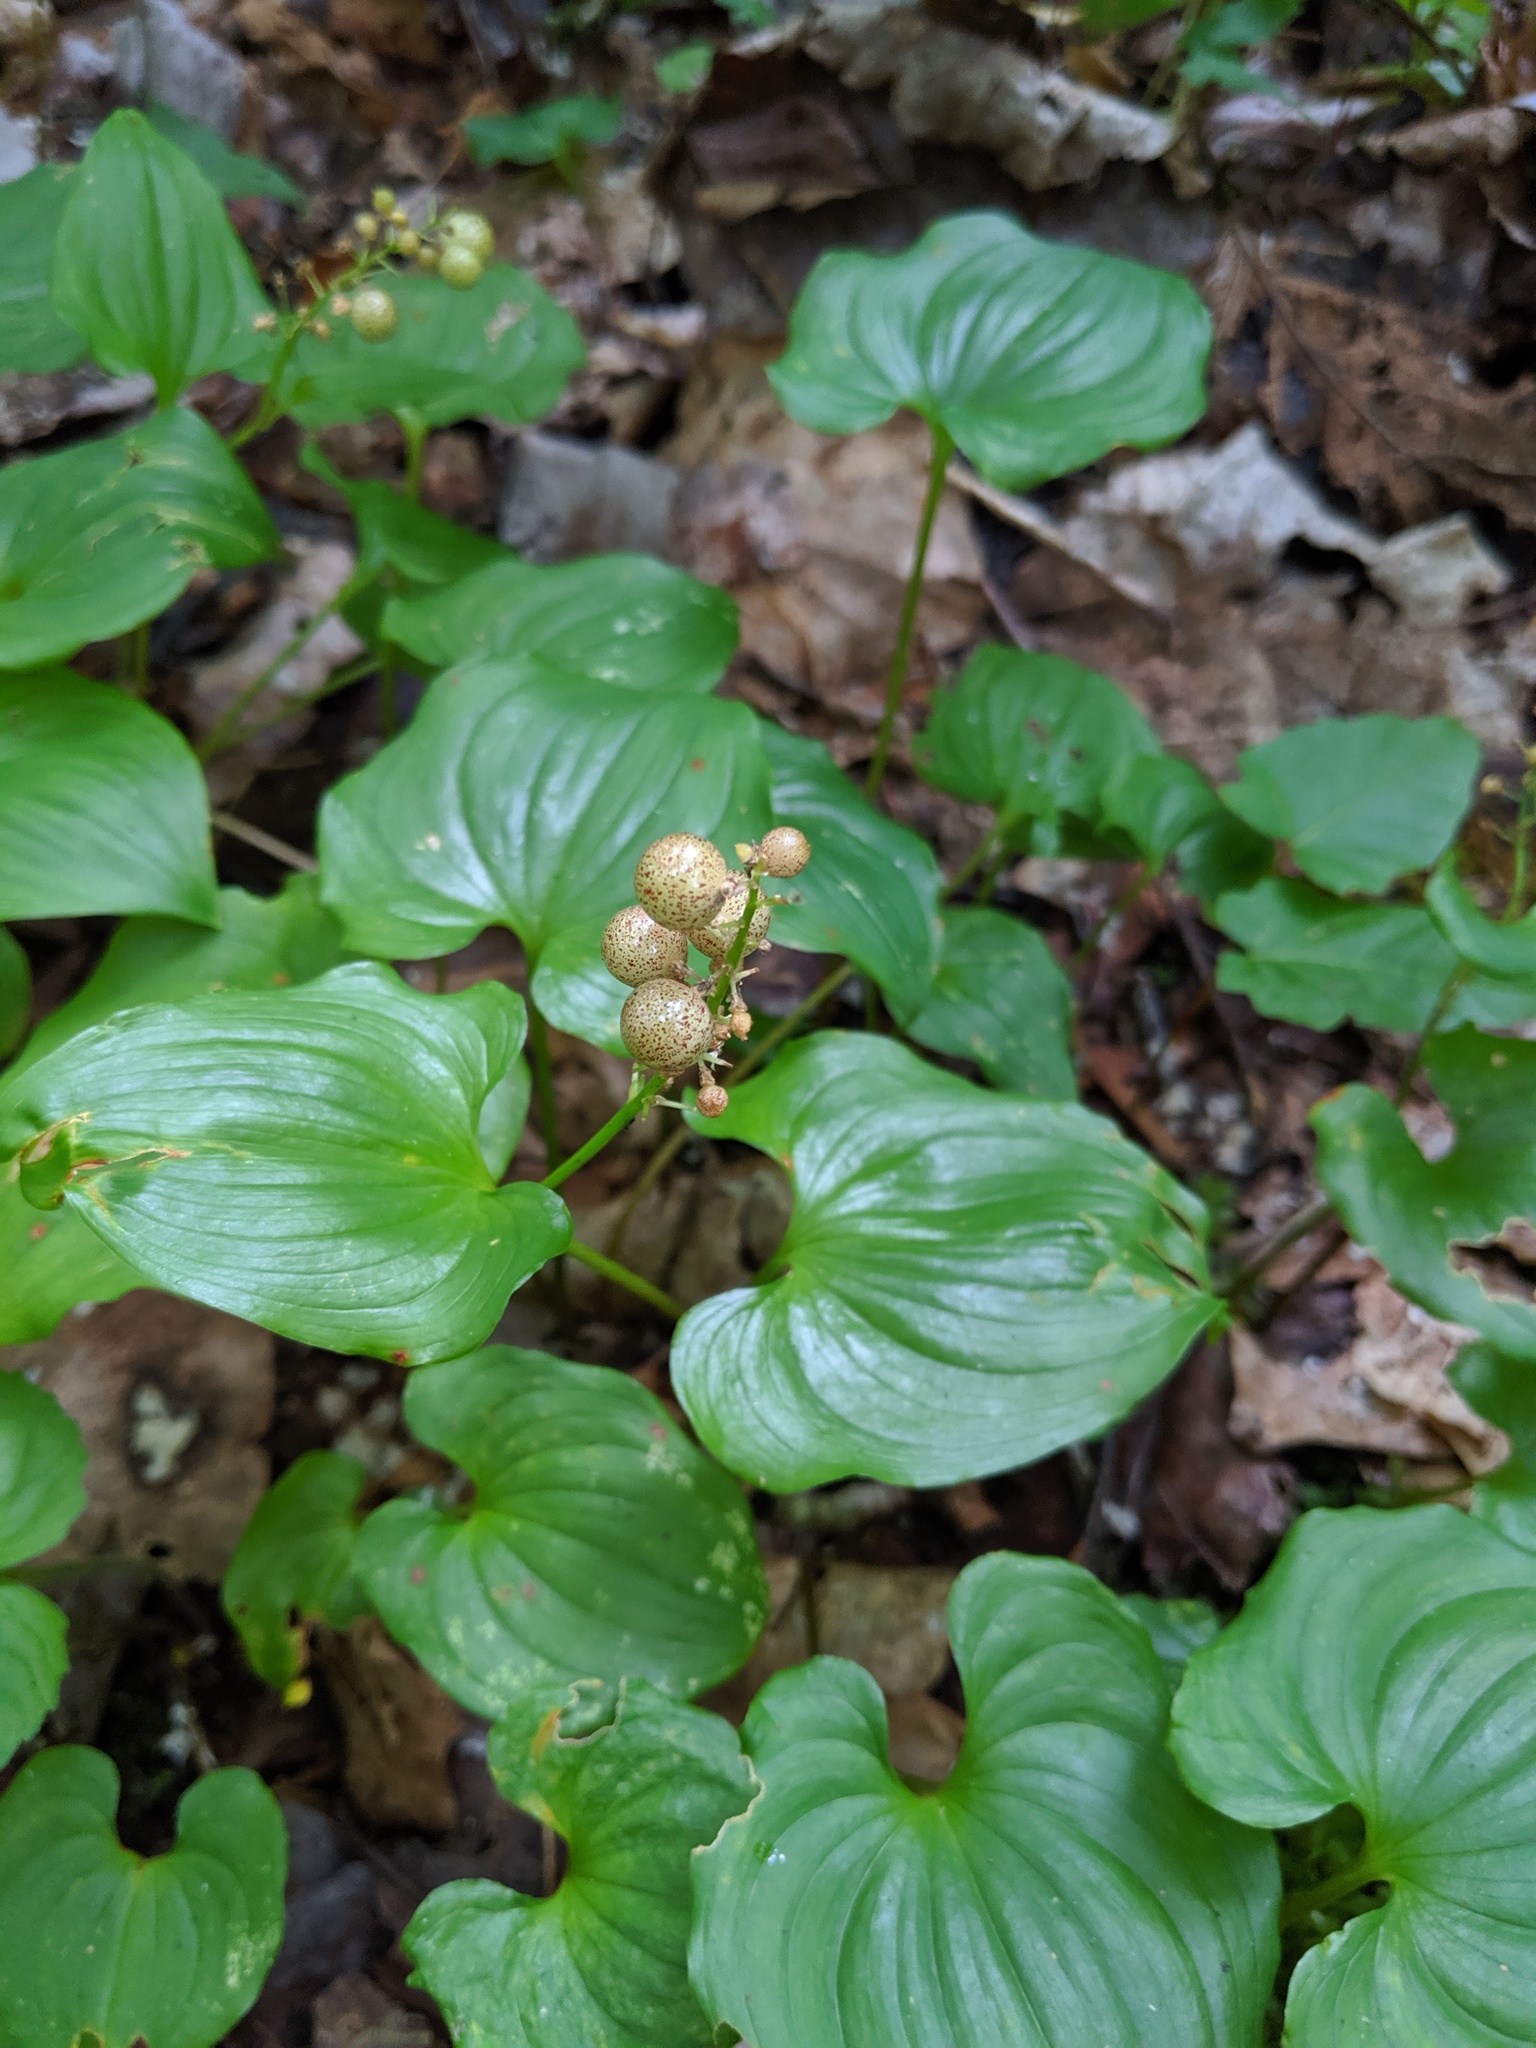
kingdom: Plantae
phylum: Tracheophyta
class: Liliopsida
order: Asparagales
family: Asparagaceae
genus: Maianthemum
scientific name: Maianthemum dilatatum
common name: False lily-of-the-valley
